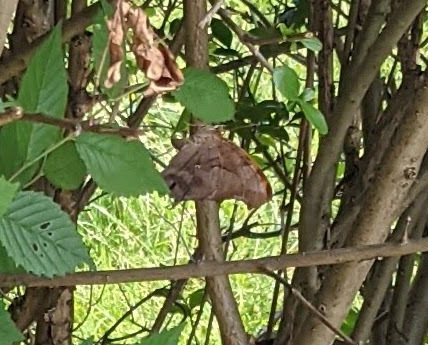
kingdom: Animalia
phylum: Arthropoda
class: Insecta
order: Lepidoptera
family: Nymphalidae
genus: Polygonia
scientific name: Polygonia interrogationis
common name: Question mark
